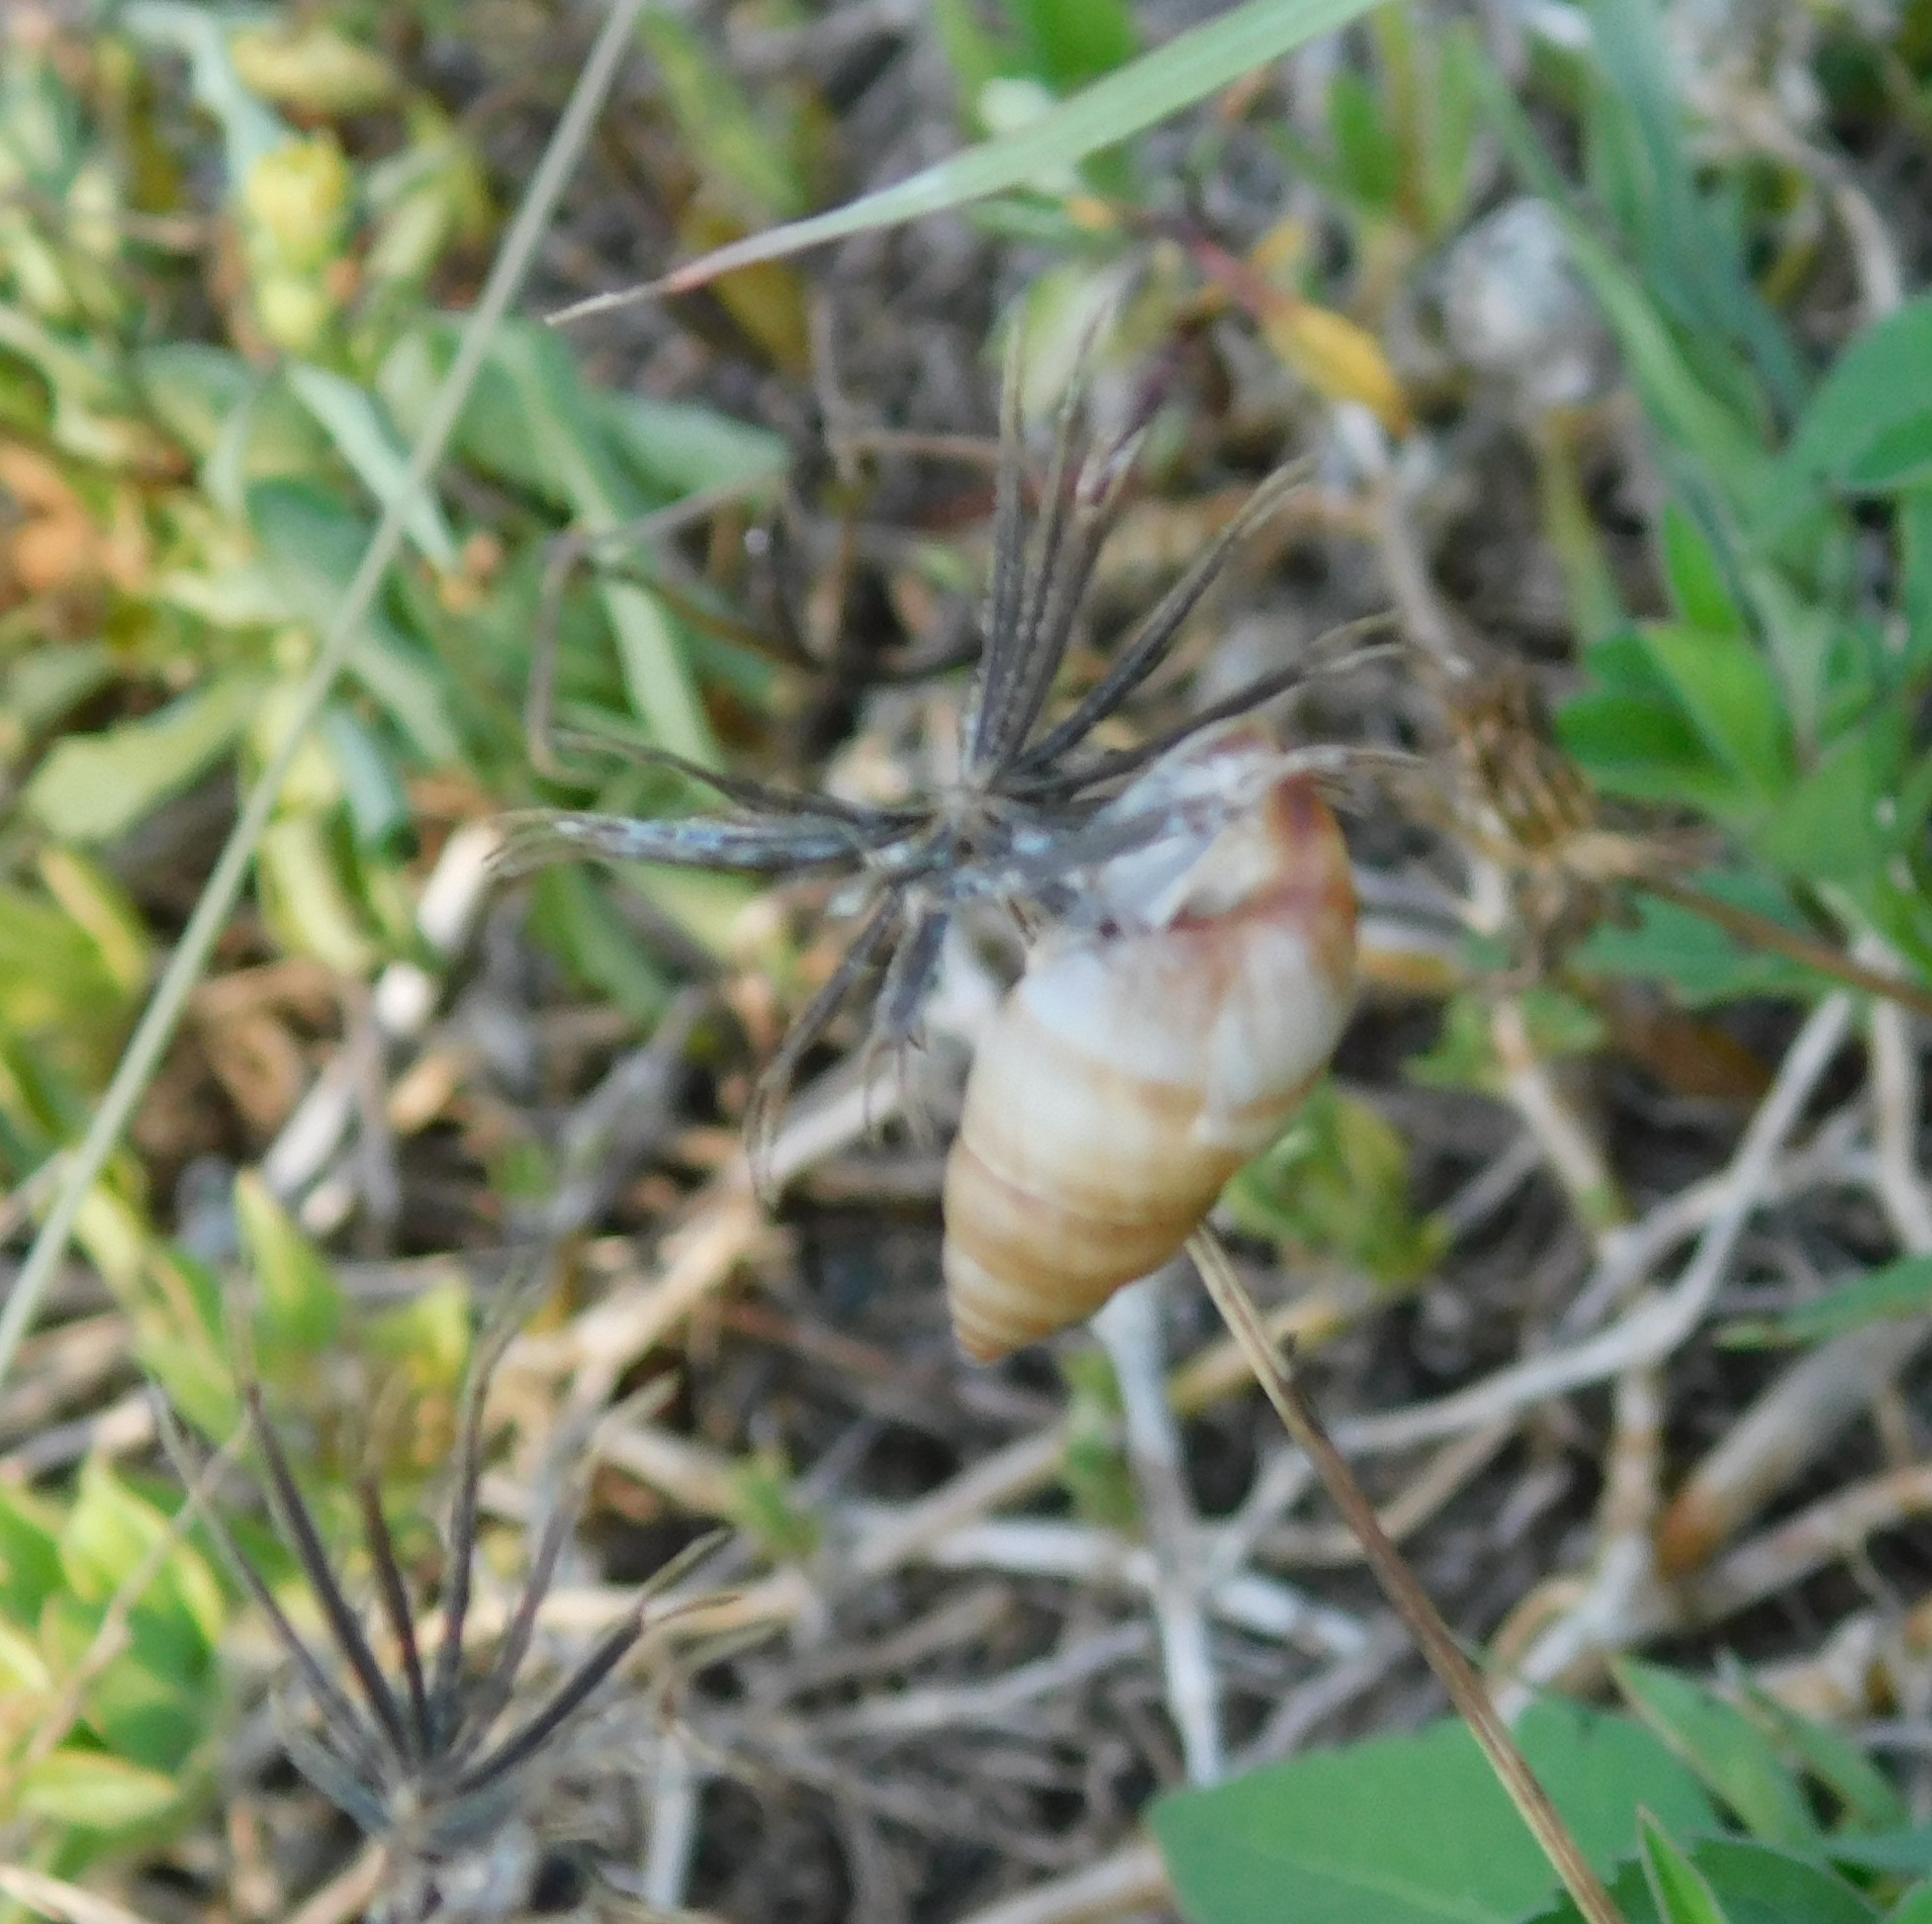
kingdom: Animalia
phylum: Mollusca
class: Gastropoda
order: Stylommatophora
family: Bulimulidae
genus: Bulimulus
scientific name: Bulimulus guadalupensis
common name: West indian bulimulus
